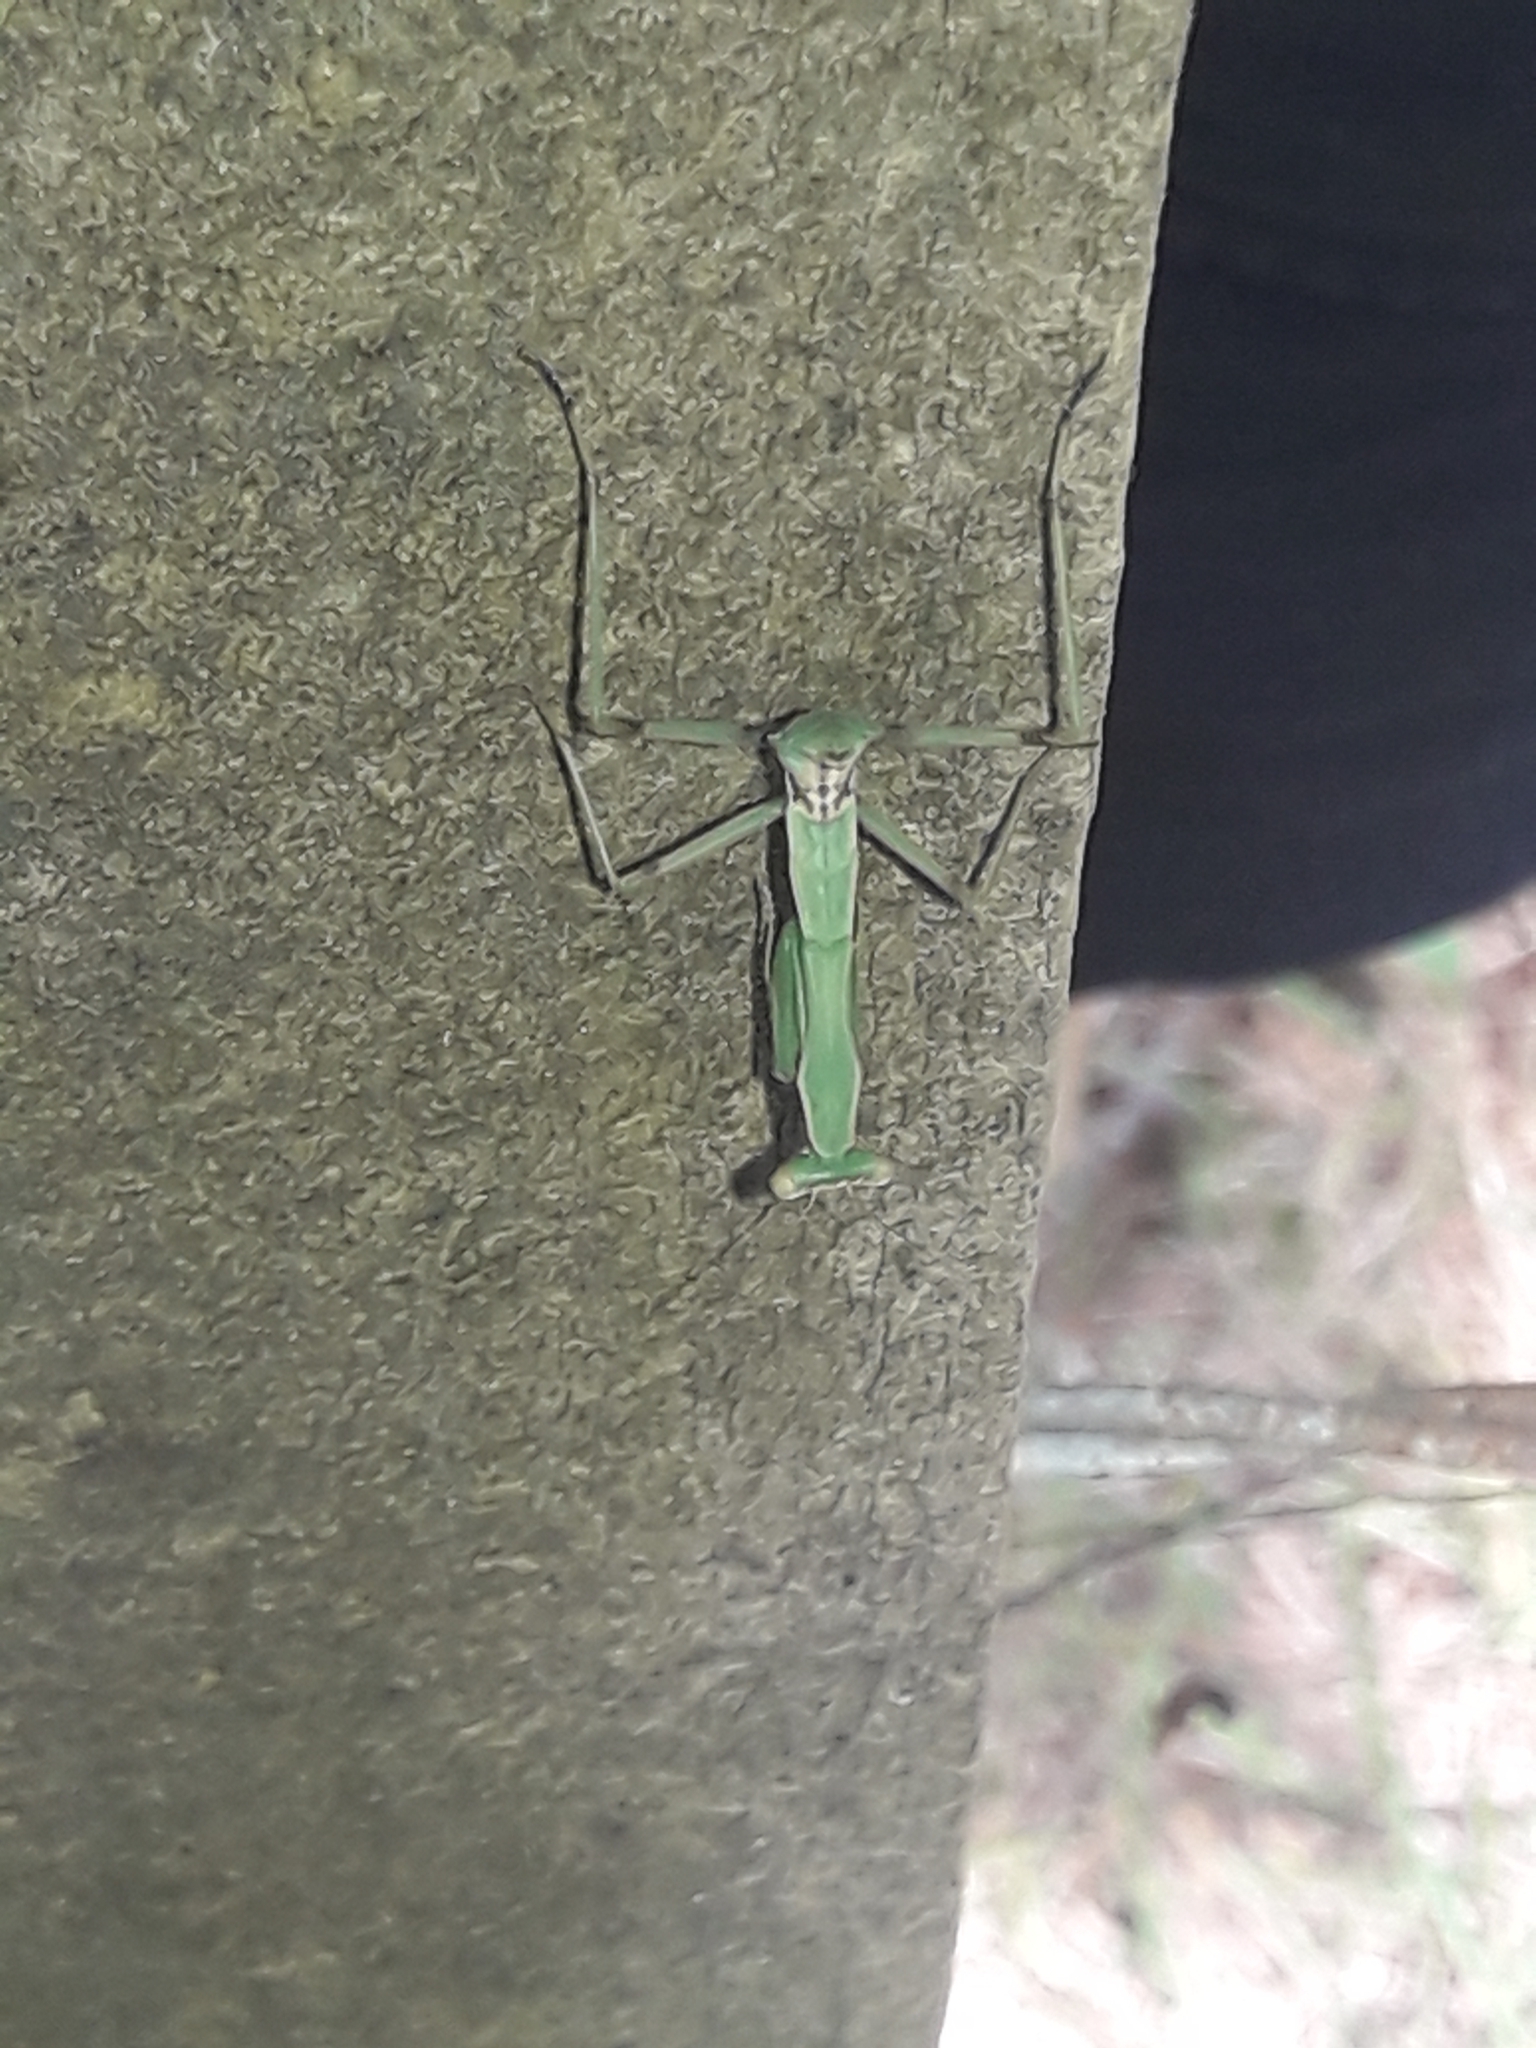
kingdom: Animalia
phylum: Arthropoda
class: Insecta
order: Mantodea
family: Miomantidae
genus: Miomantis
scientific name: Miomantis caffra
